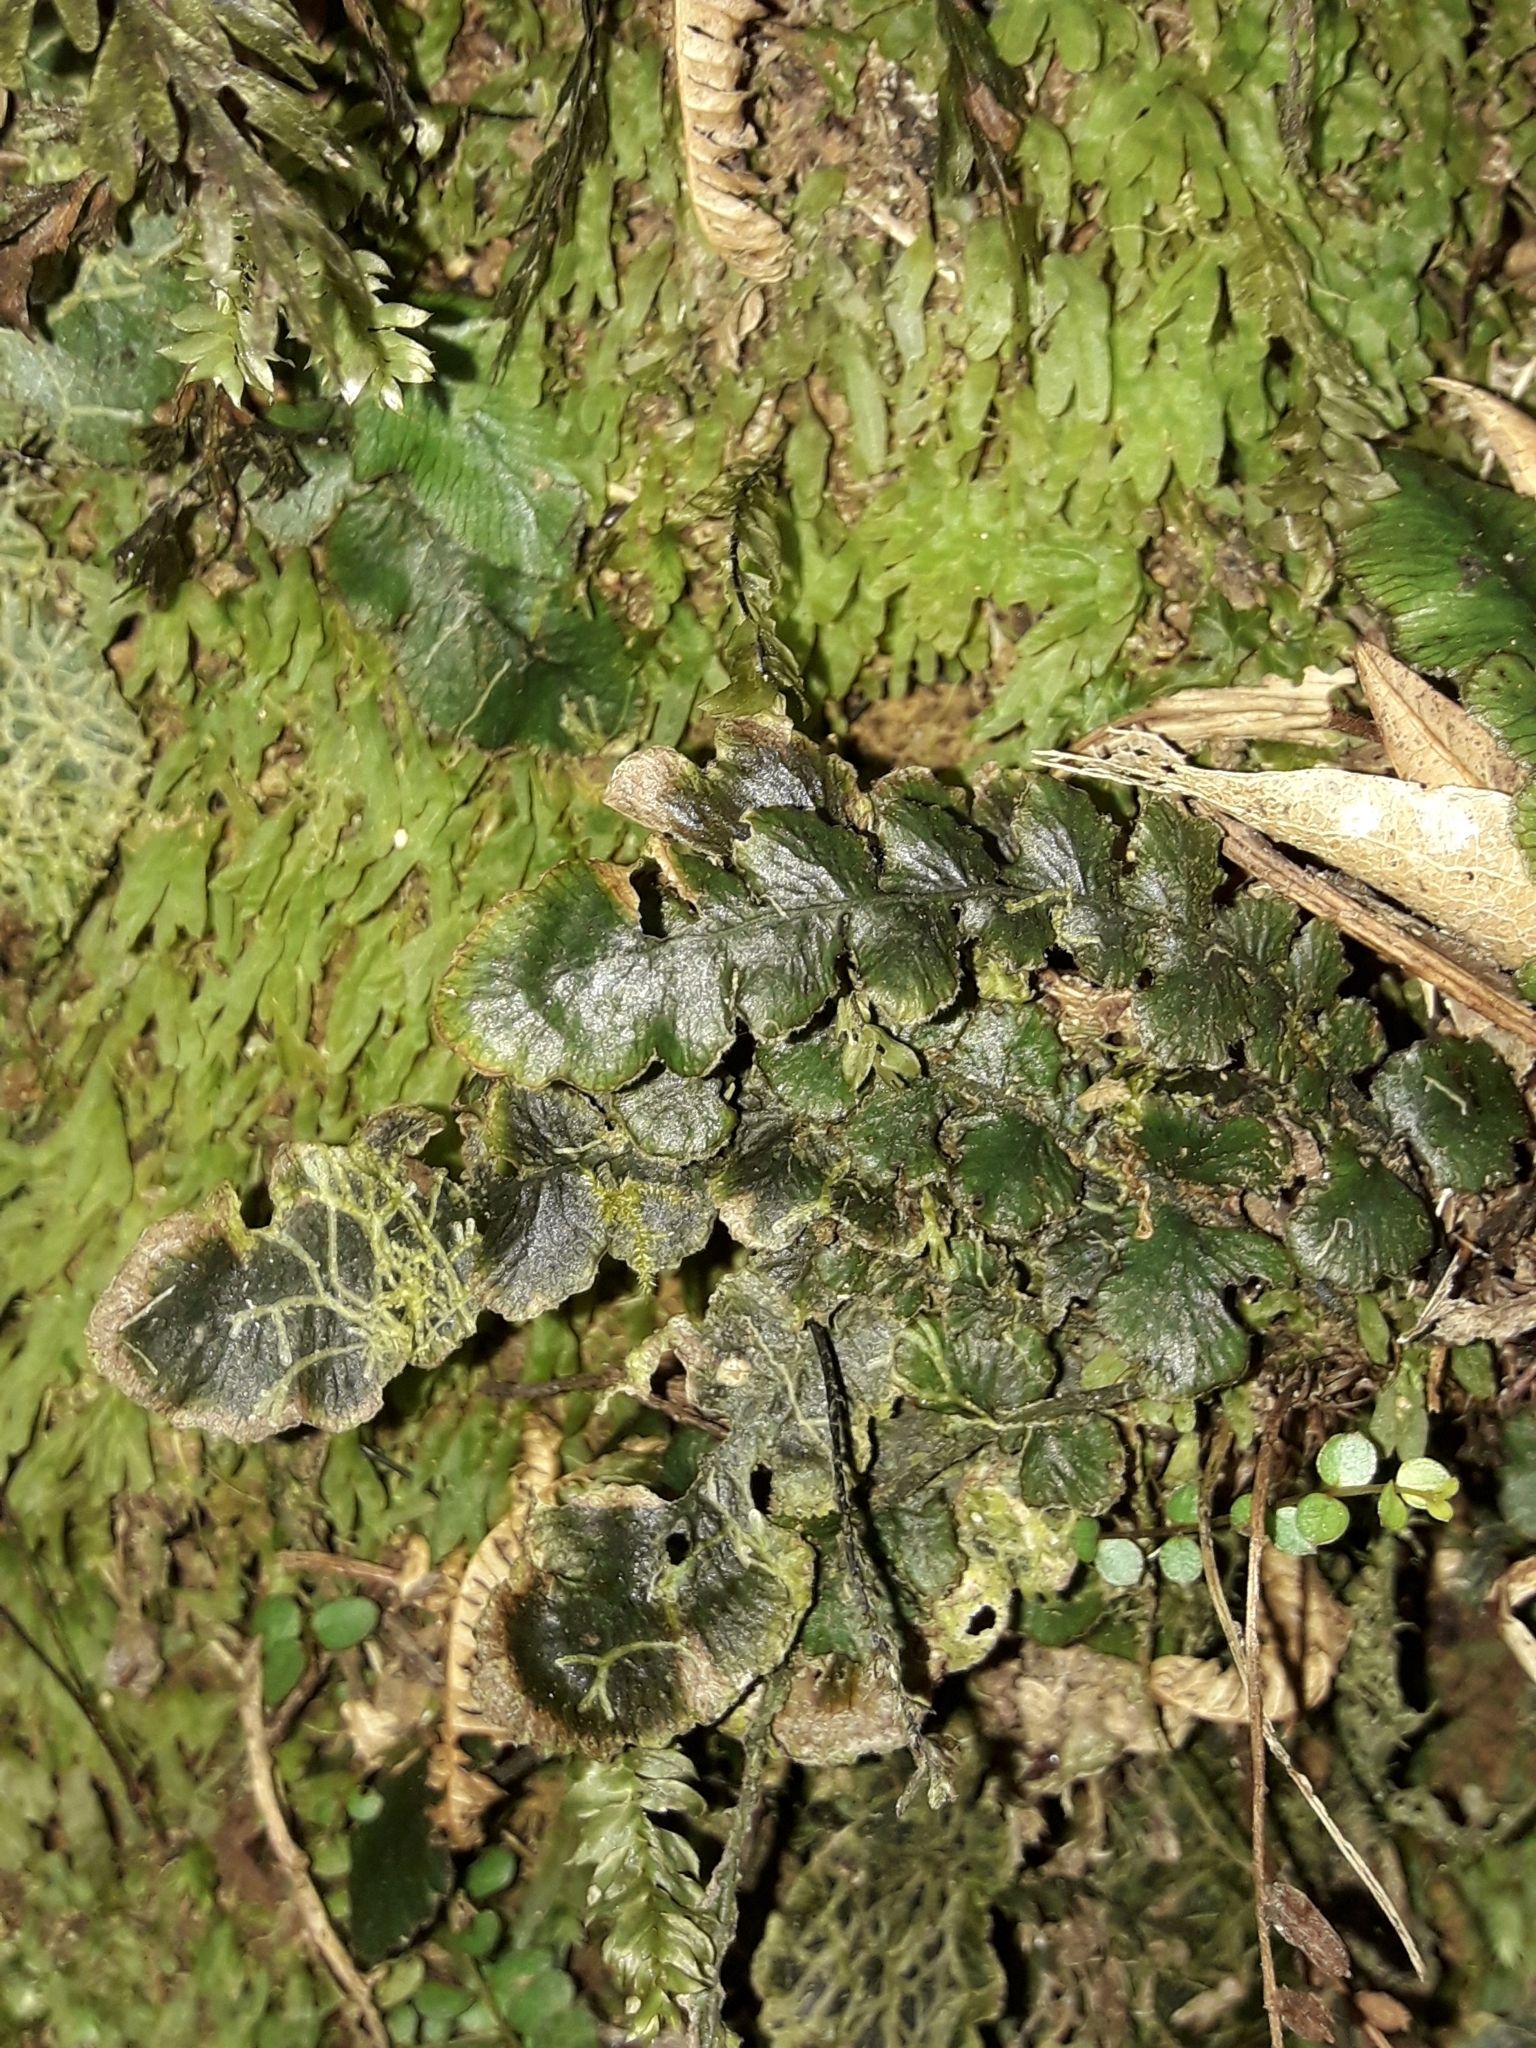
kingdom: Plantae
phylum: Tracheophyta
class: Polypodiopsida
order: Polypodiales
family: Blechnaceae
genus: Cranfillia
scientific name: Cranfillia nigra
